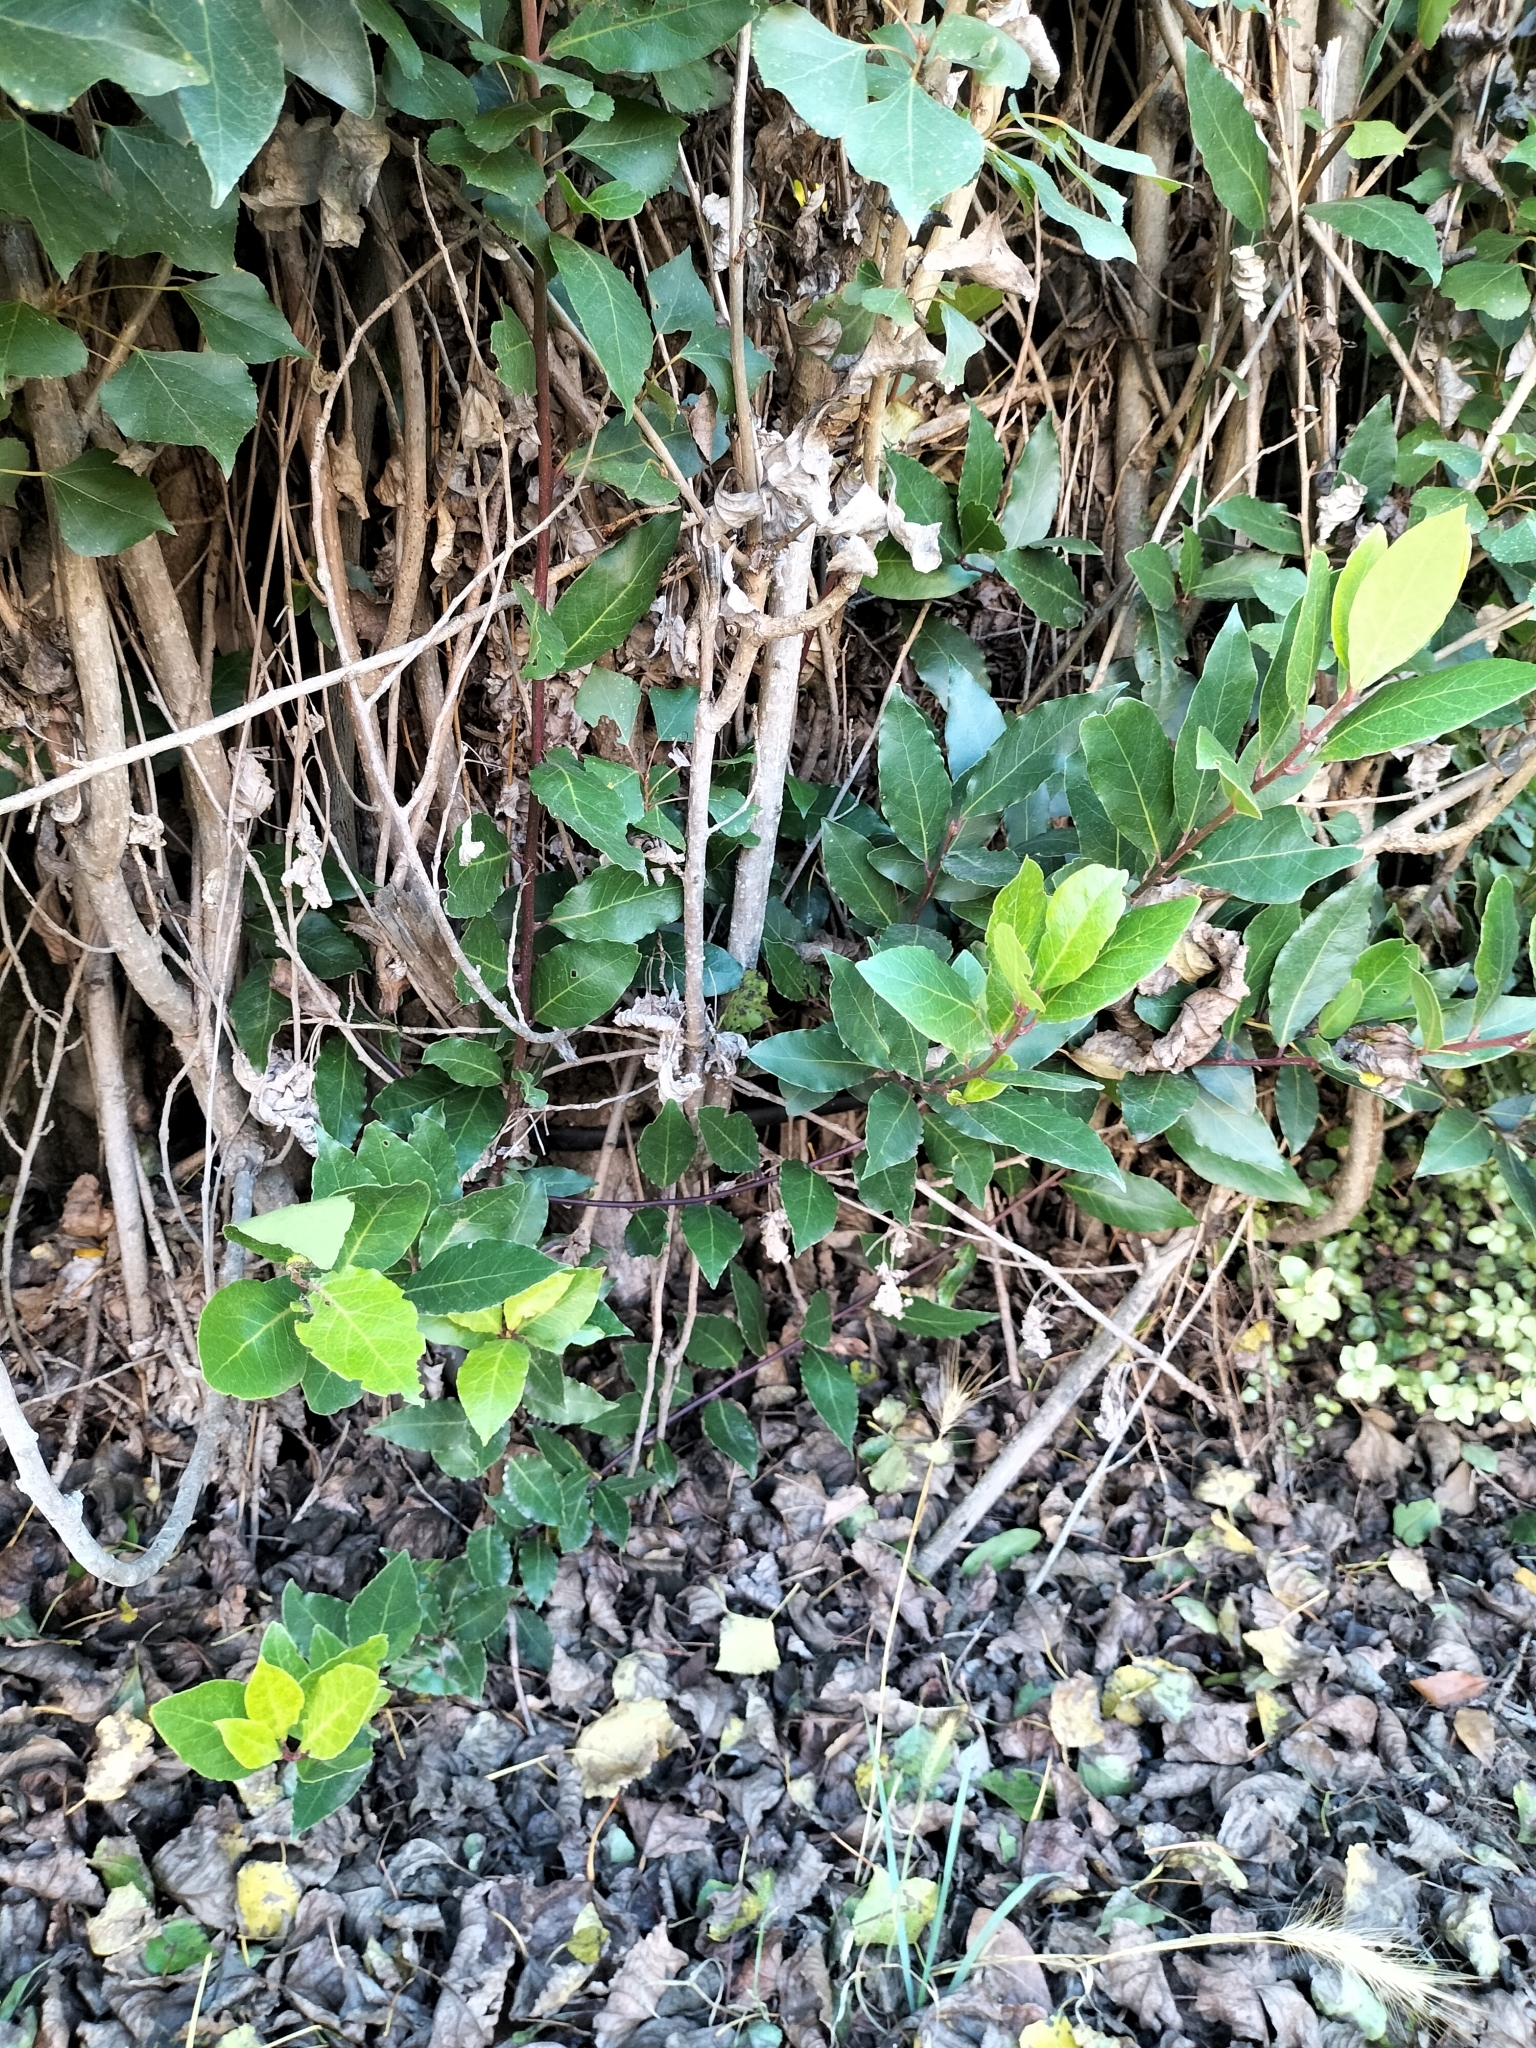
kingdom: Plantae
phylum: Tracheophyta
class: Magnoliopsida
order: Laurales
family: Lauraceae
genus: Laurus
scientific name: Laurus nobilis
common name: Bay
